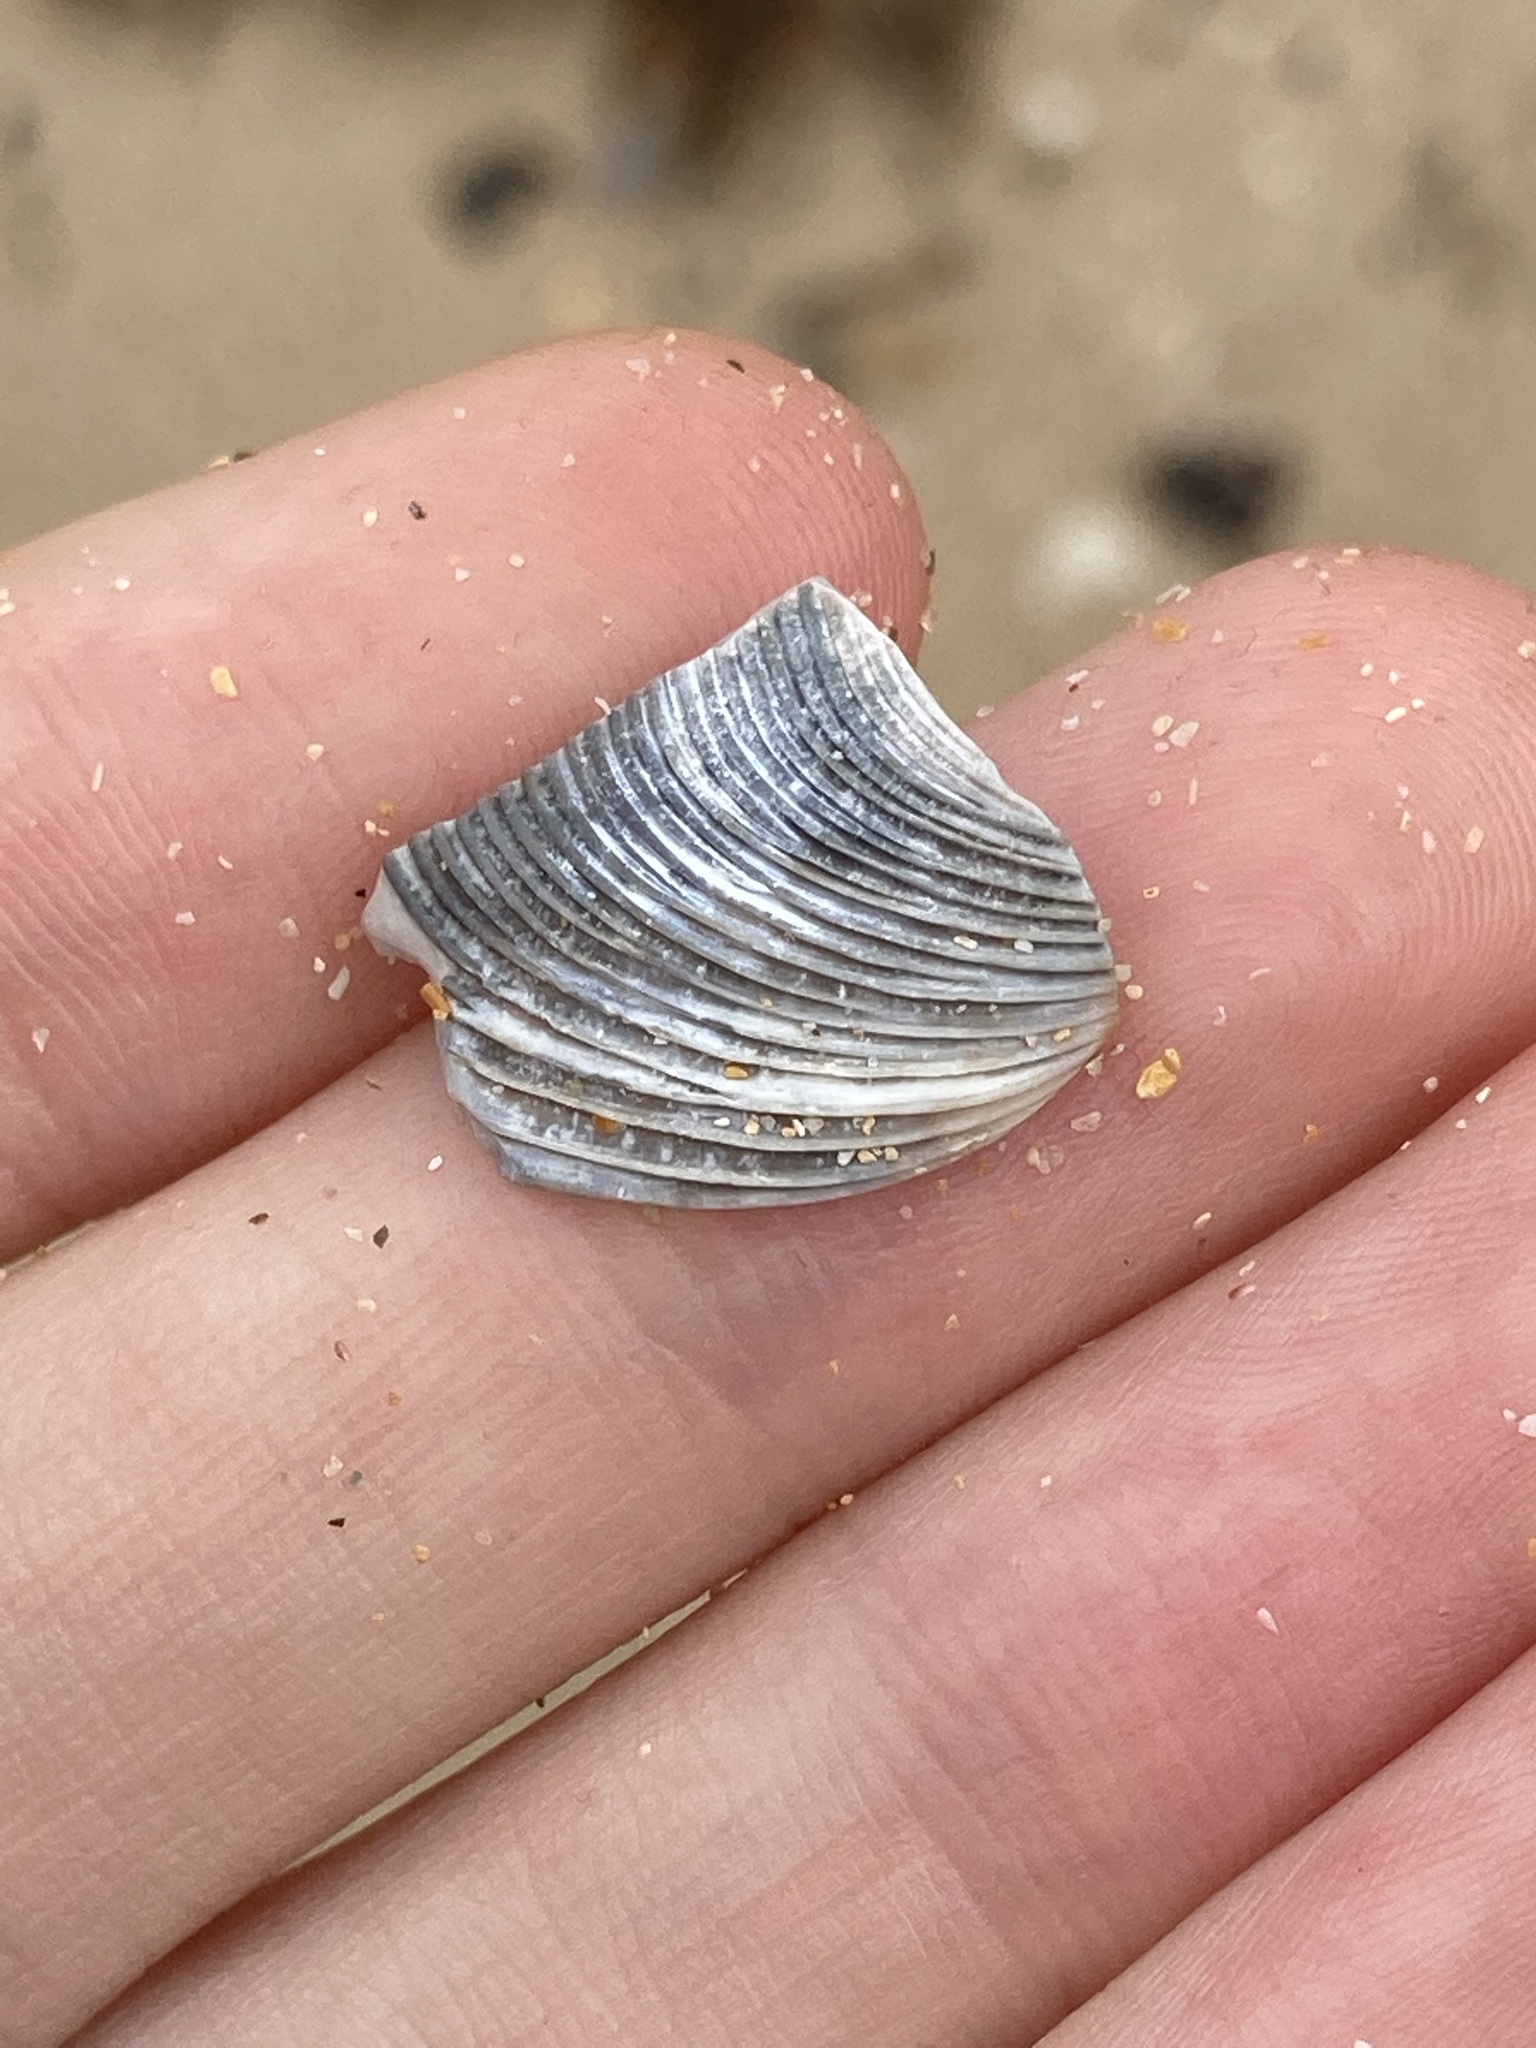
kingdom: Animalia
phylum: Mollusca
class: Bivalvia
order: Venerida
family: Veneridae
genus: Tapes
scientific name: Tapes conspersus
